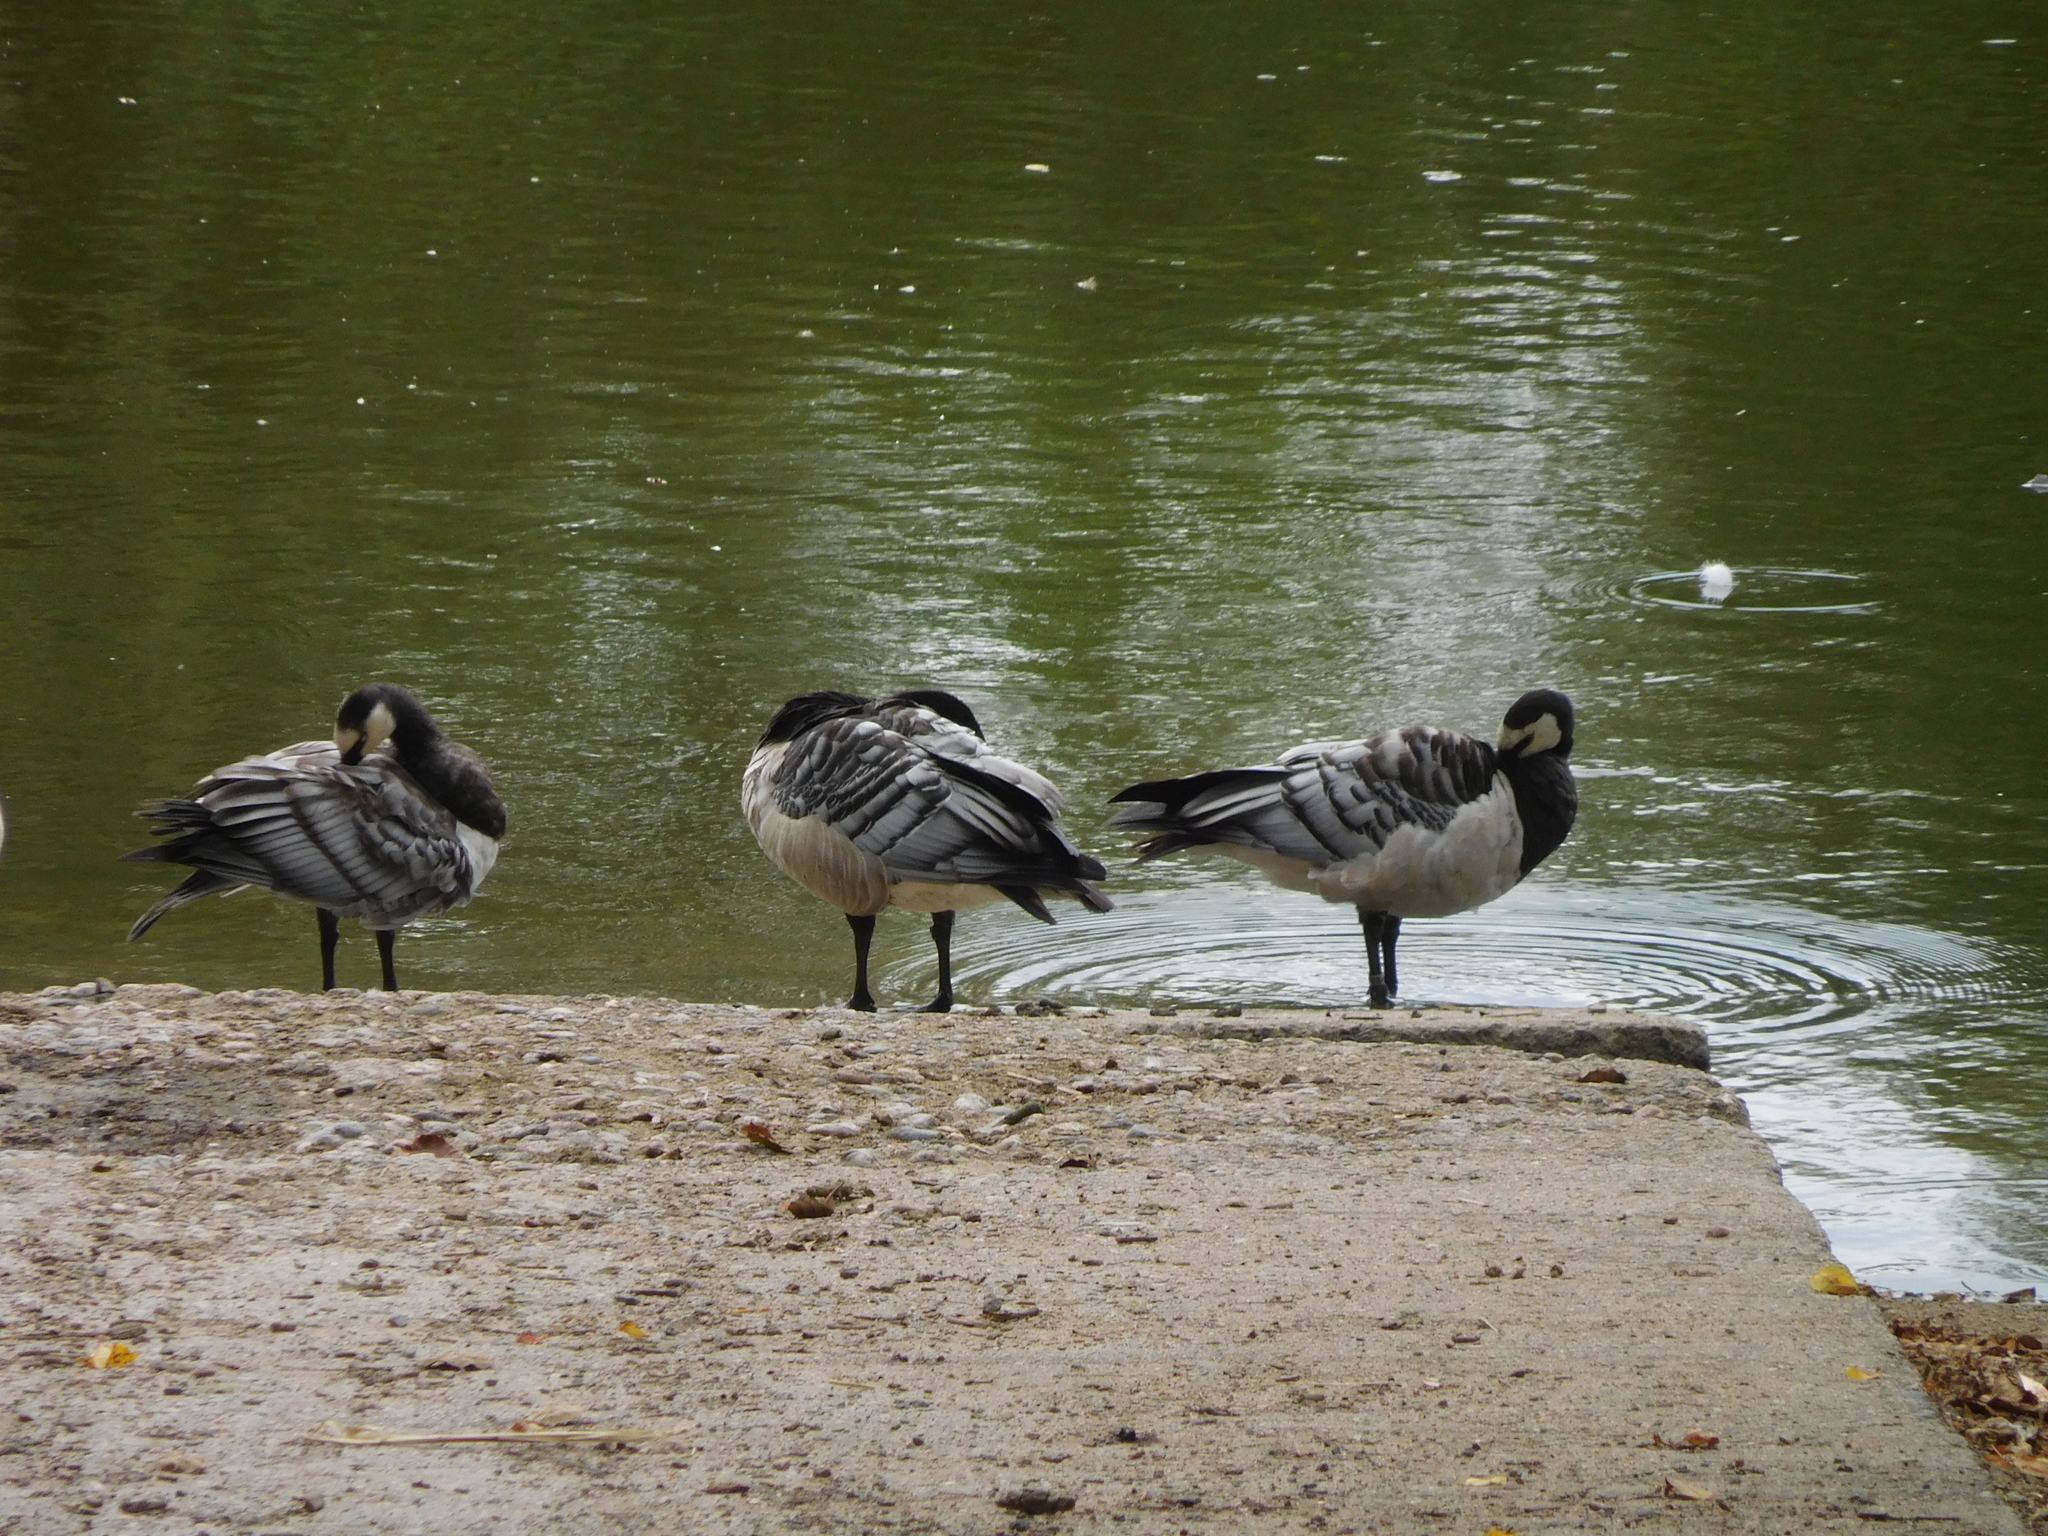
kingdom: Animalia
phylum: Chordata
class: Aves
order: Anseriformes
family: Anatidae
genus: Branta
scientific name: Branta leucopsis
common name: Barnacle goose
